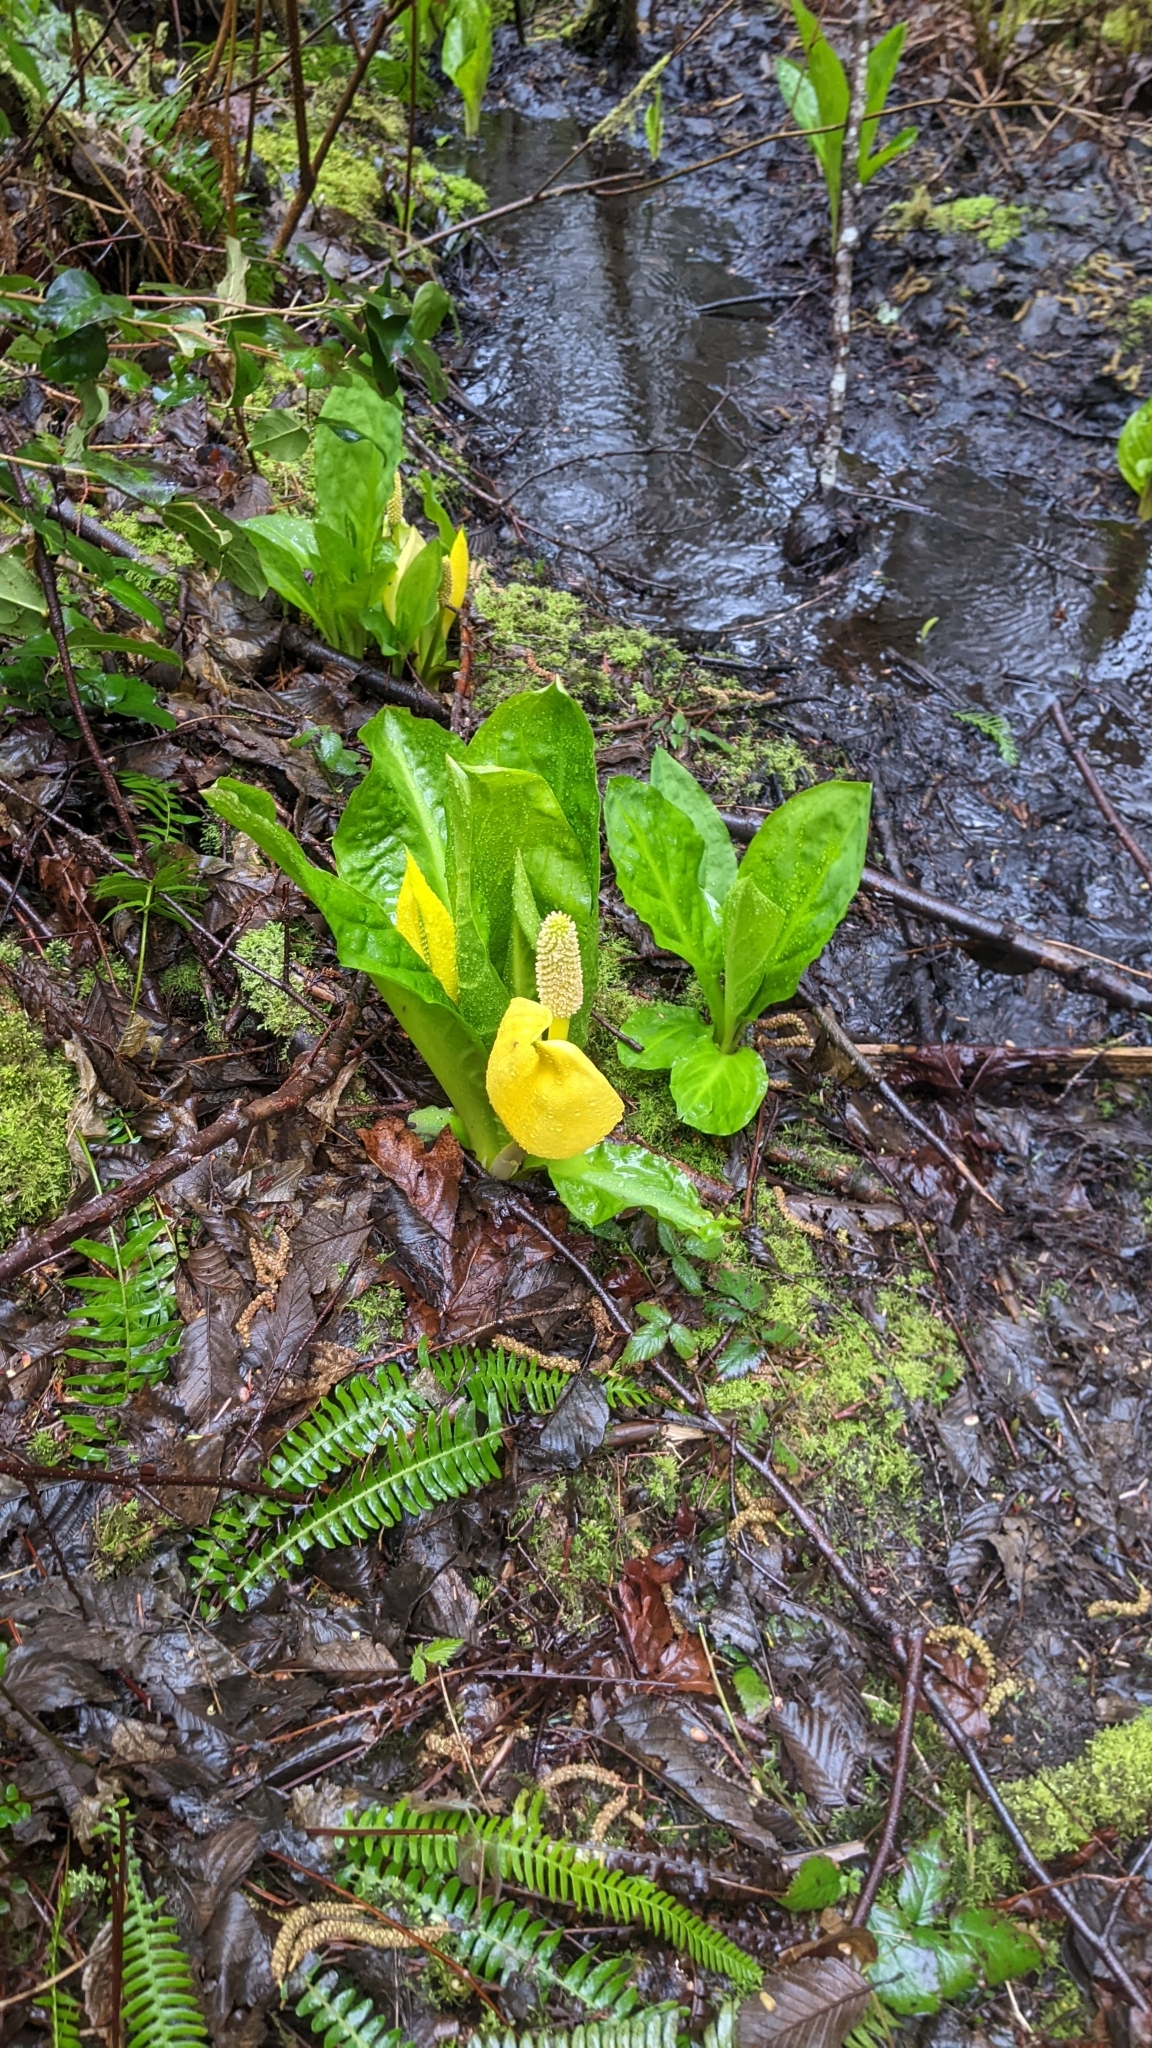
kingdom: Plantae
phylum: Tracheophyta
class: Liliopsida
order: Alismatales
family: Araceae
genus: Lysichiton
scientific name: Lysichiton americanus
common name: American skunk cabbage
